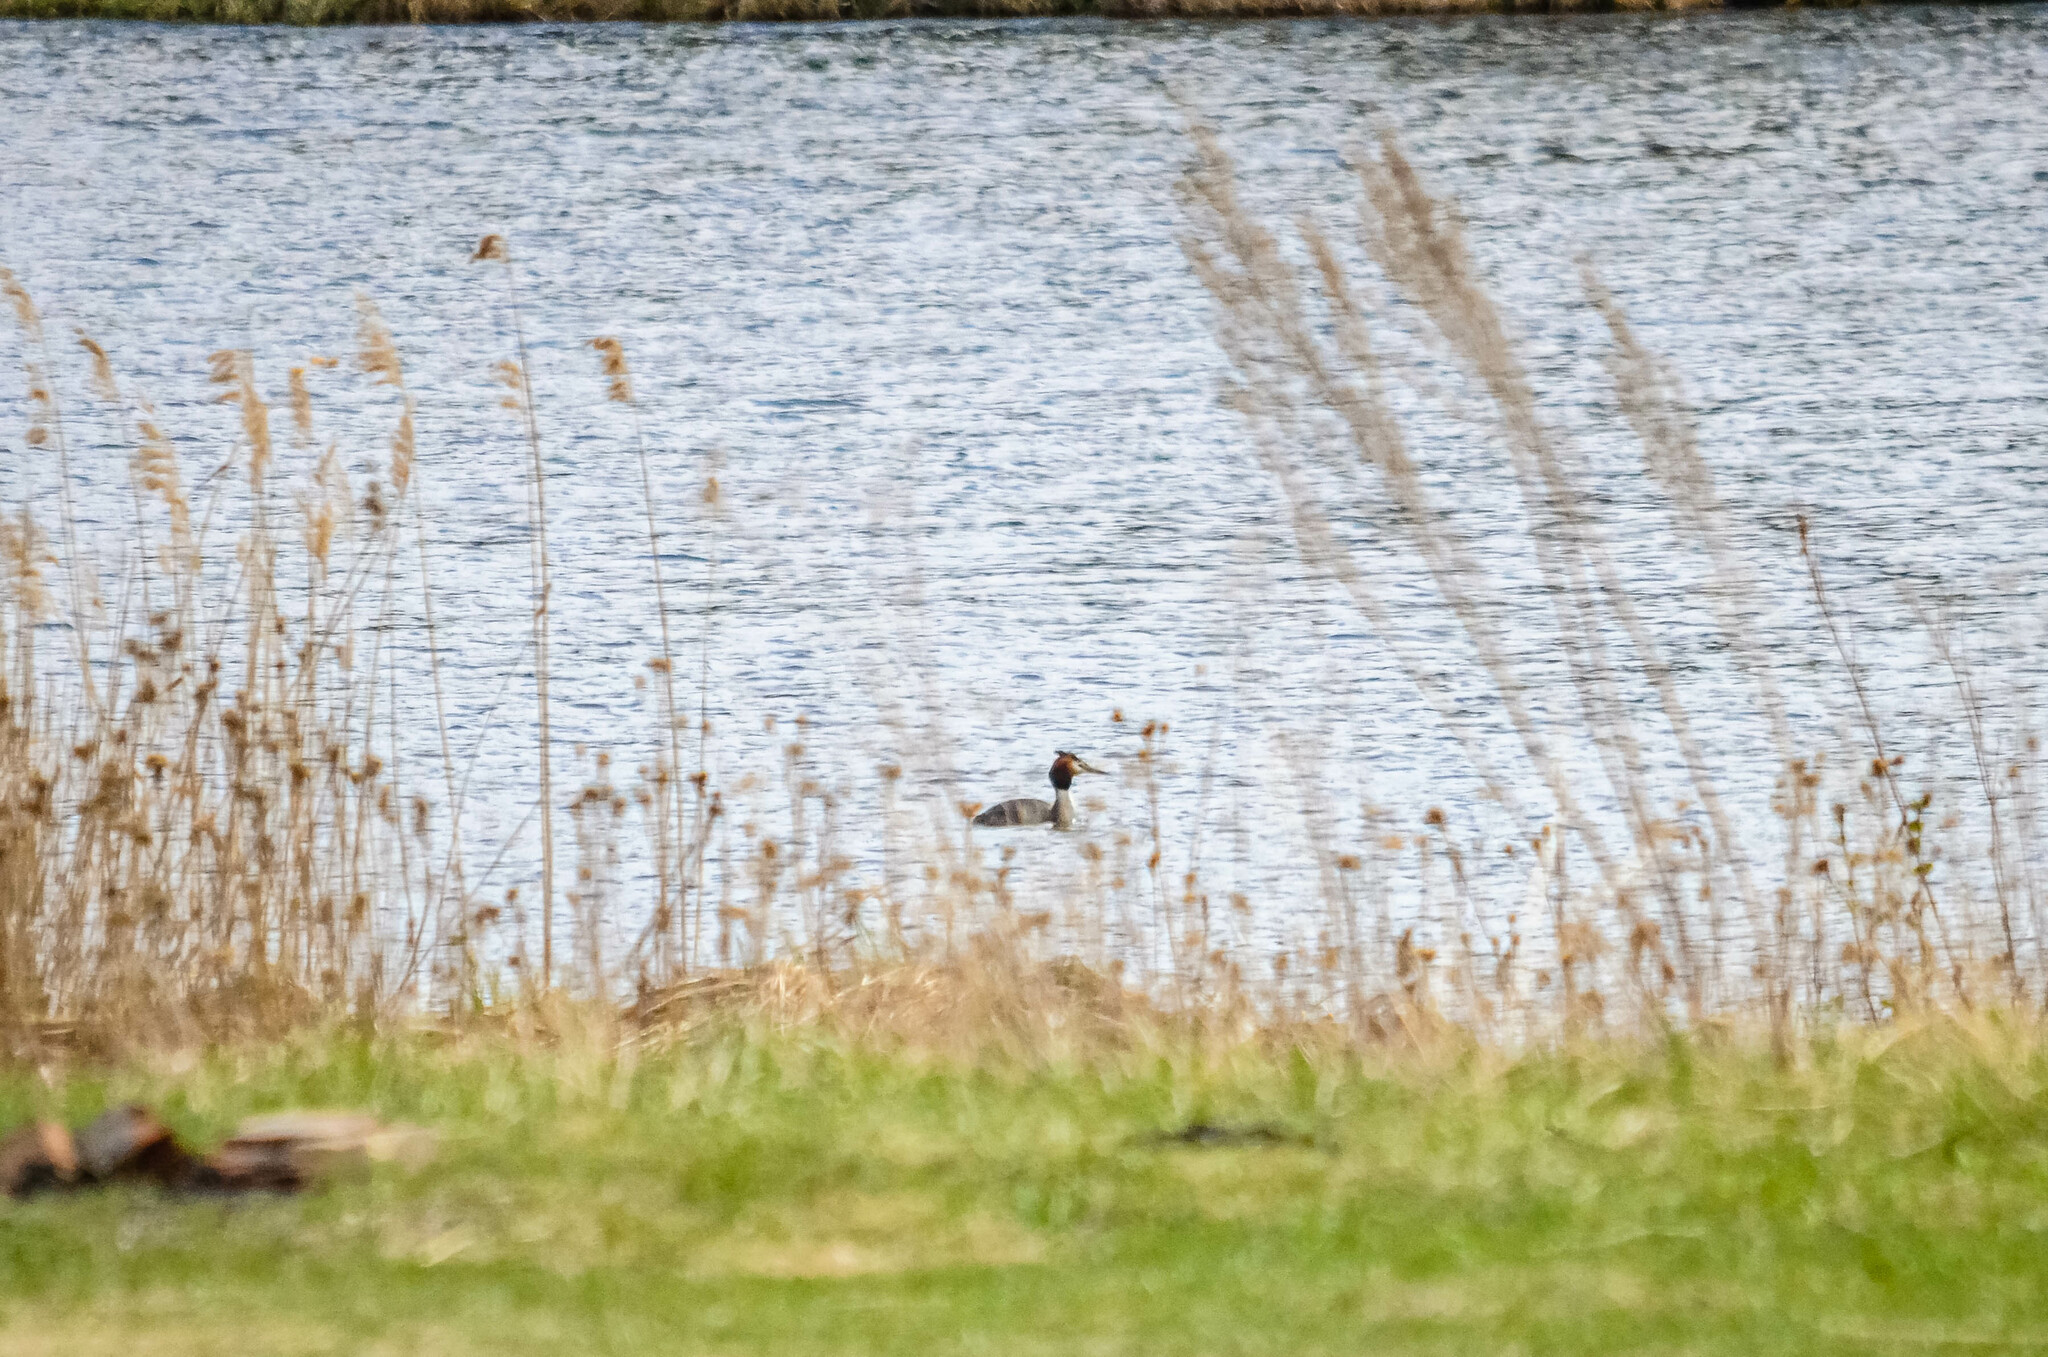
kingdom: Animalia
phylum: Chordata
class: Aves
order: Podicipediformes
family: Podicipedidae
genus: Podiceps
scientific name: Podiceps cristatus
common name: Great crested grebe
